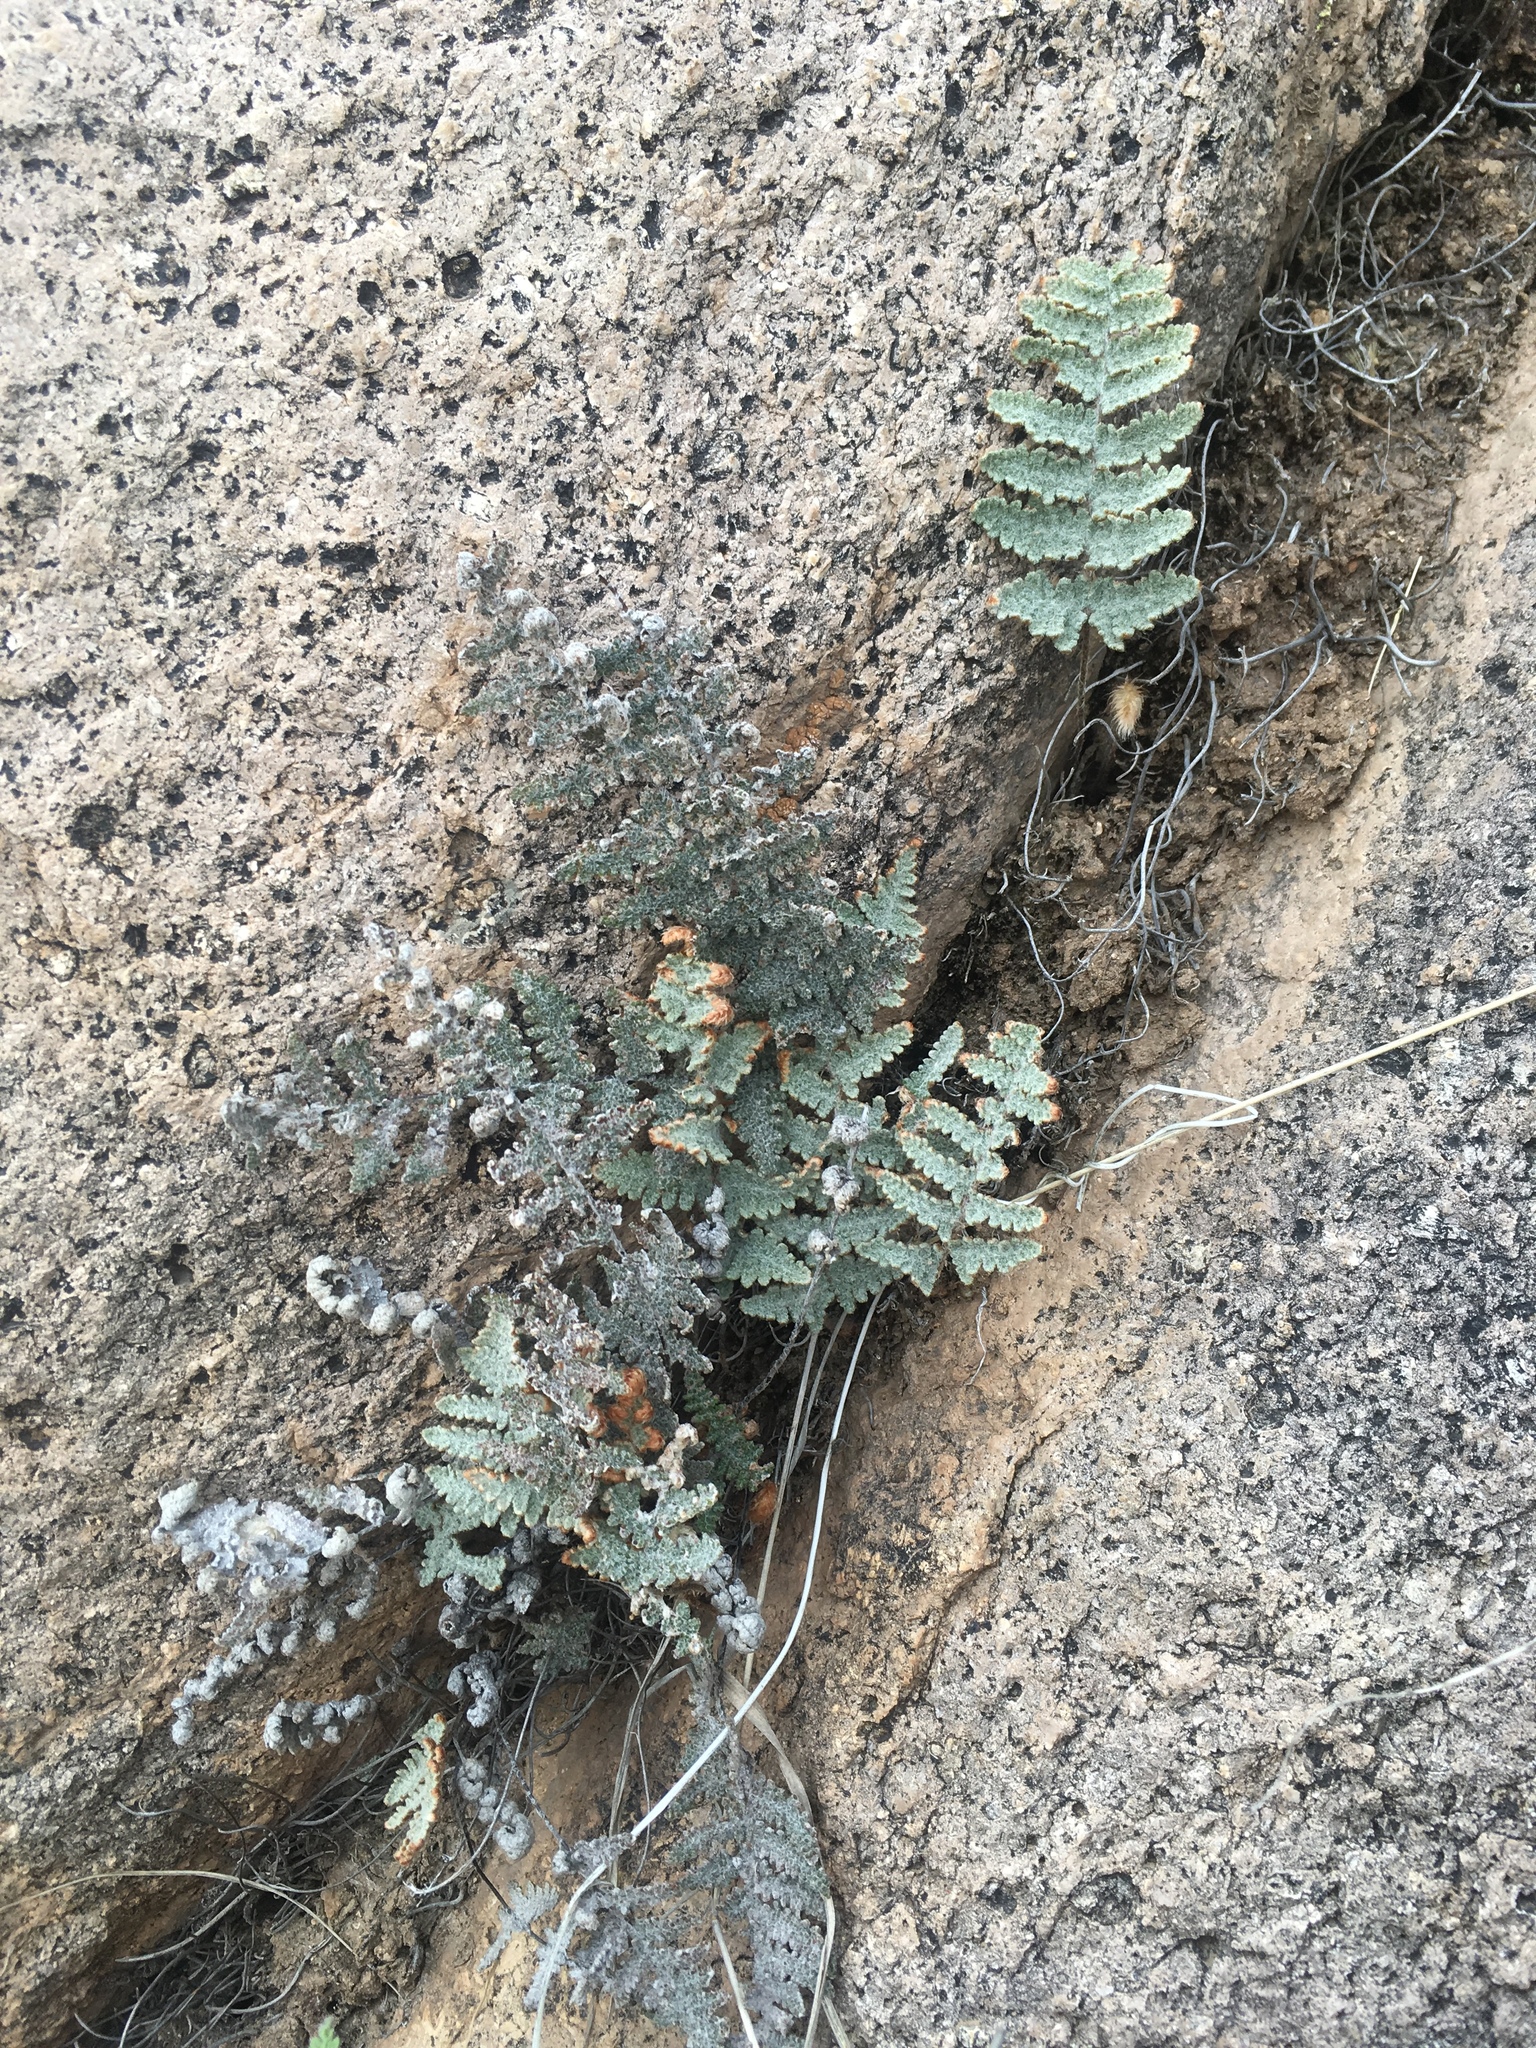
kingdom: Plantae
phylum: Tracheophyta
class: Polypodiopsida
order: Polypodiales
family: Pteridaceae
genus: Myriopteris
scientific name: Myriopteris lindheimeri
